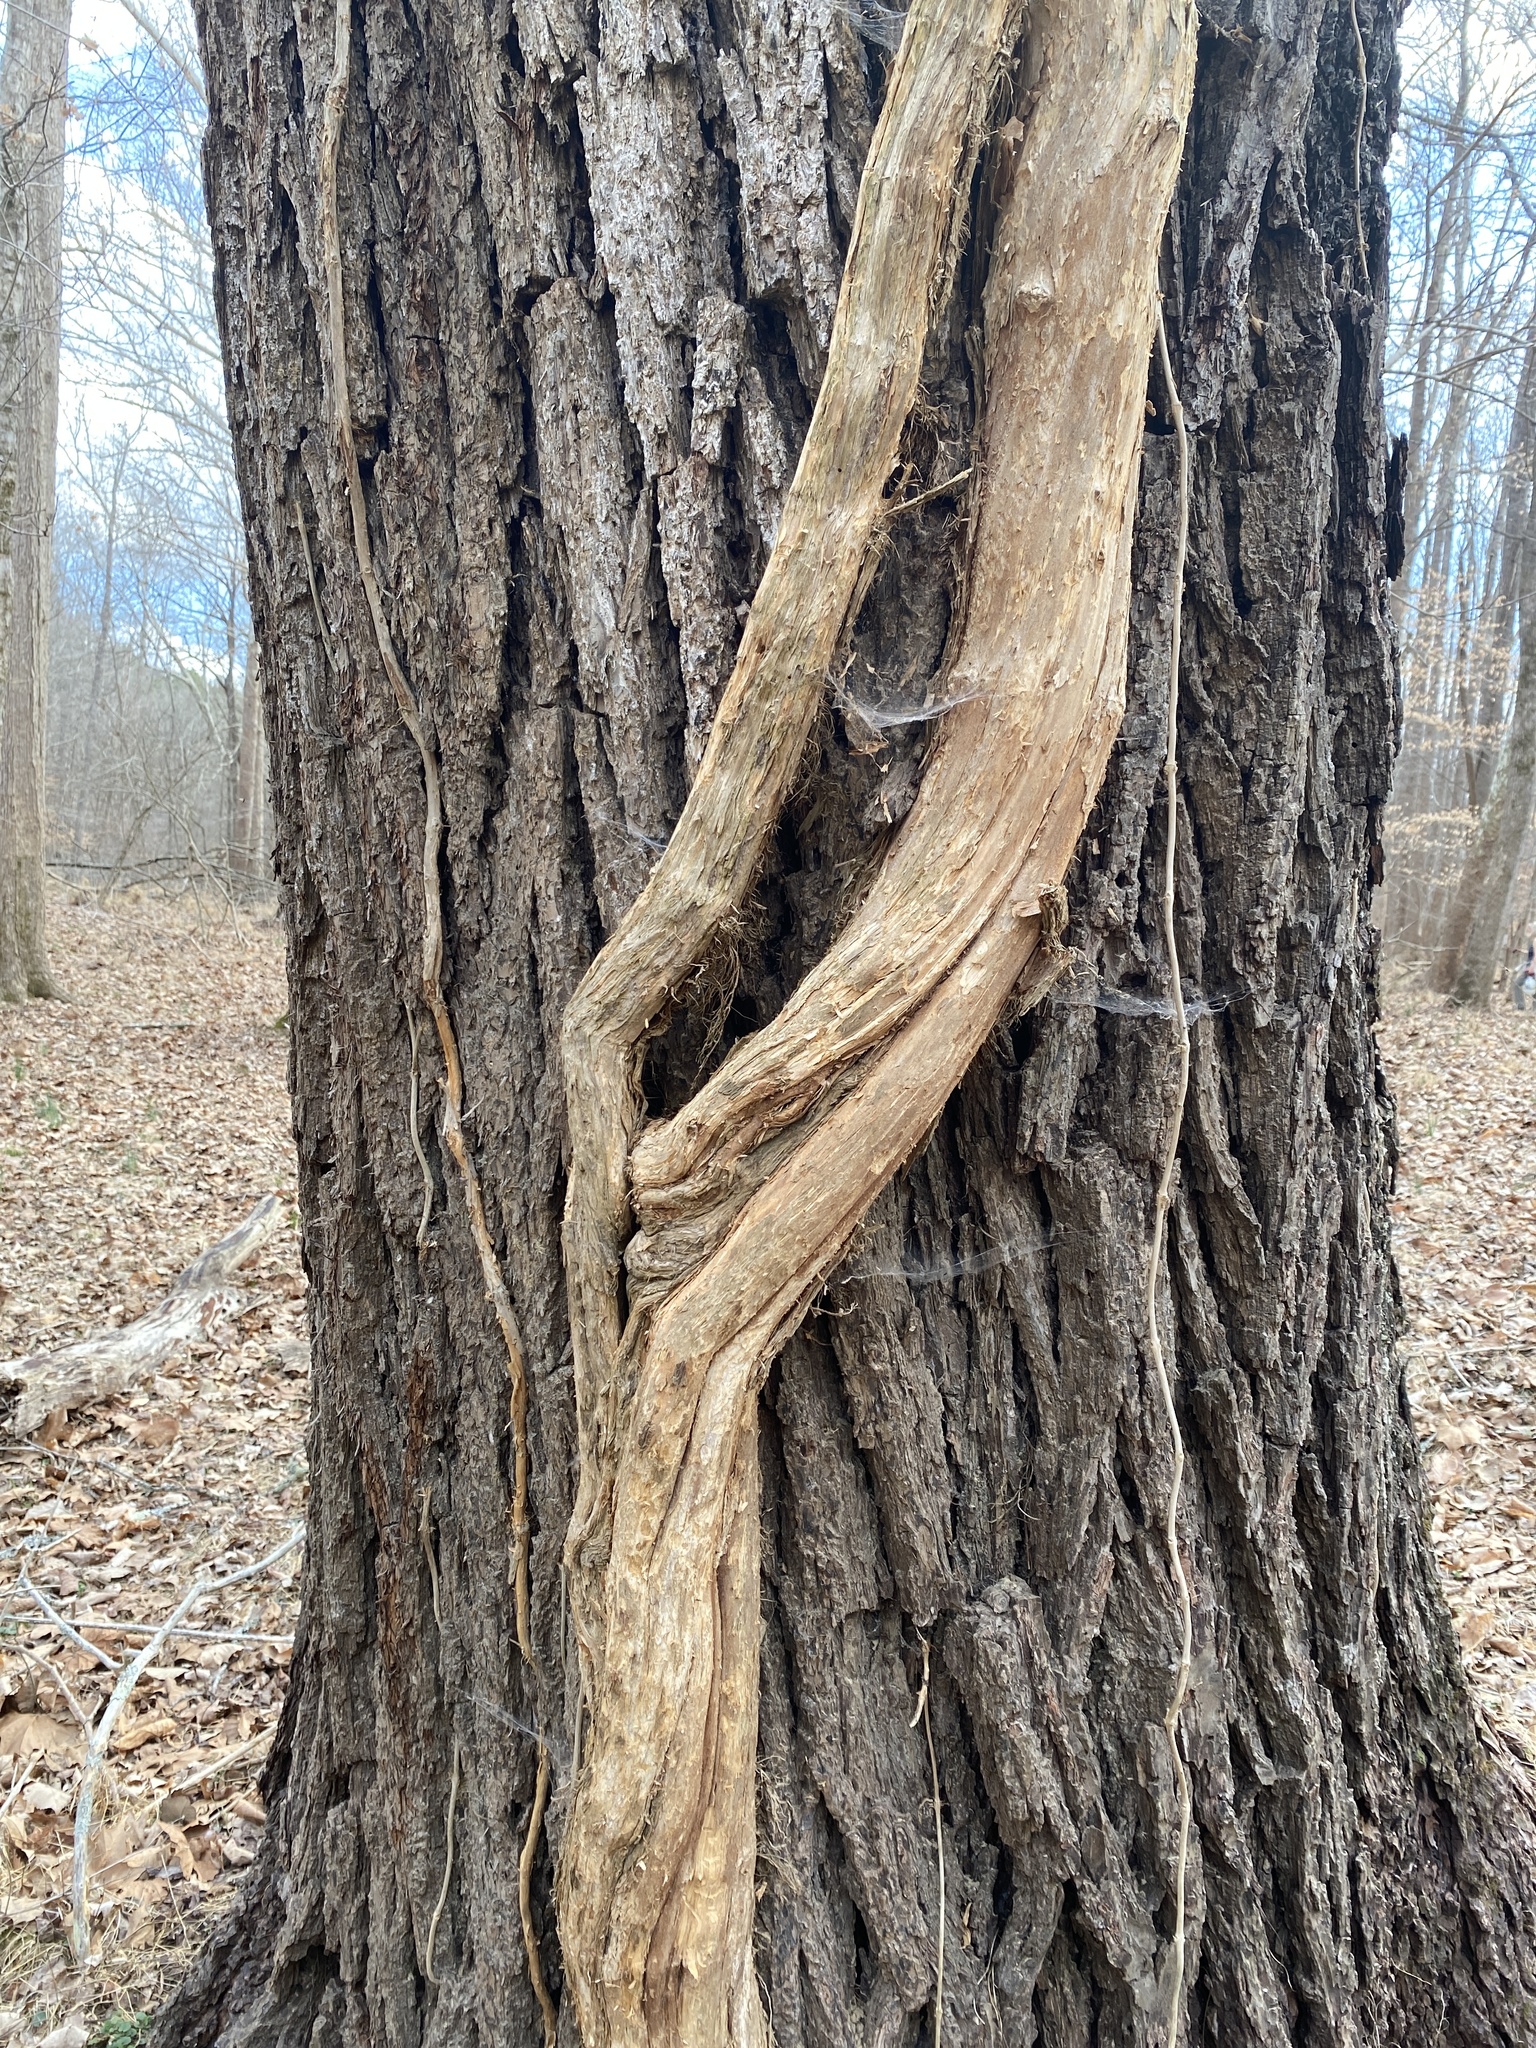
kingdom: Plantae
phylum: Tracheophyta
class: Magnoliopsida
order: Lamiales
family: Bignoniaceae
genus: Campsis
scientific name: Campsis radicans
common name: Trumpet-creeper
